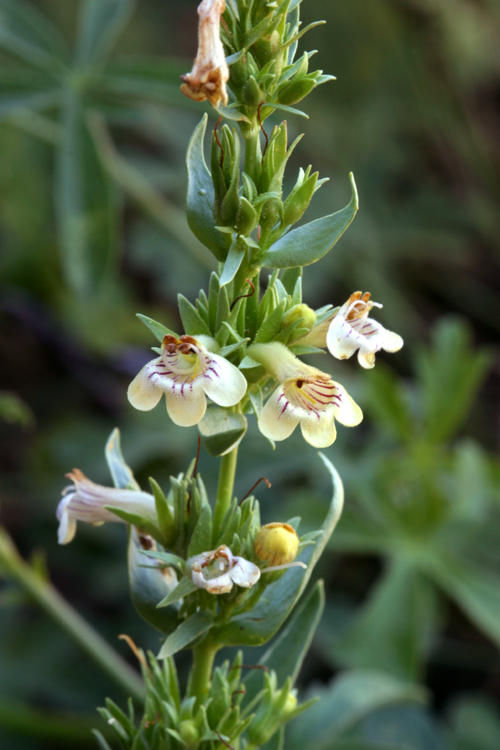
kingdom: Plantae
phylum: Tracheophyta
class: Magnoliopsida
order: Lamiales
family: Plantaginaceae
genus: Penstemon
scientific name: Penstemon deustus
